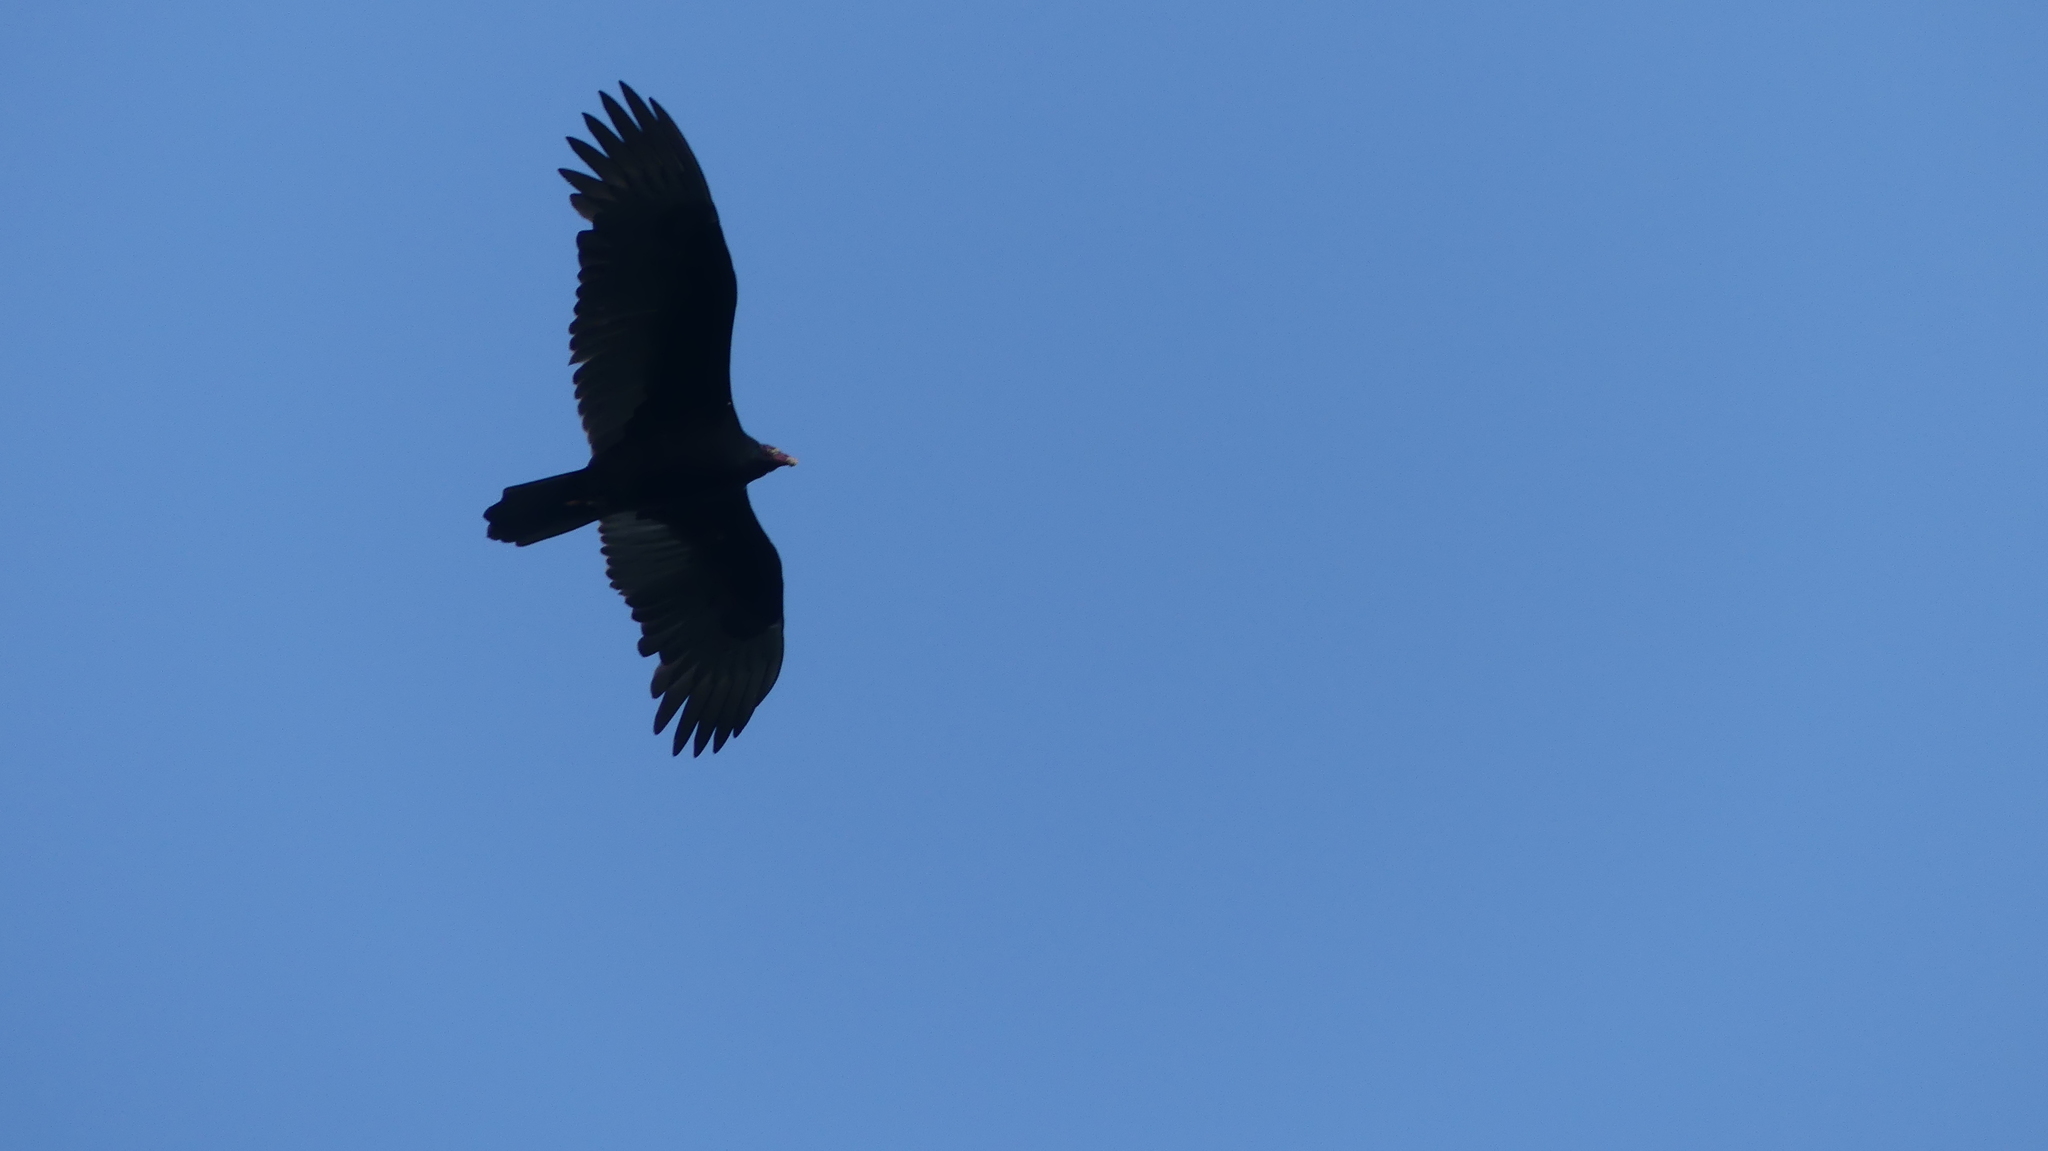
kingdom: Animalia
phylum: Chordata
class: Aves
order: Accipitriformes
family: Cathartidae
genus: Cathartes
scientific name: Cathartes aura
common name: Turkey vulture
